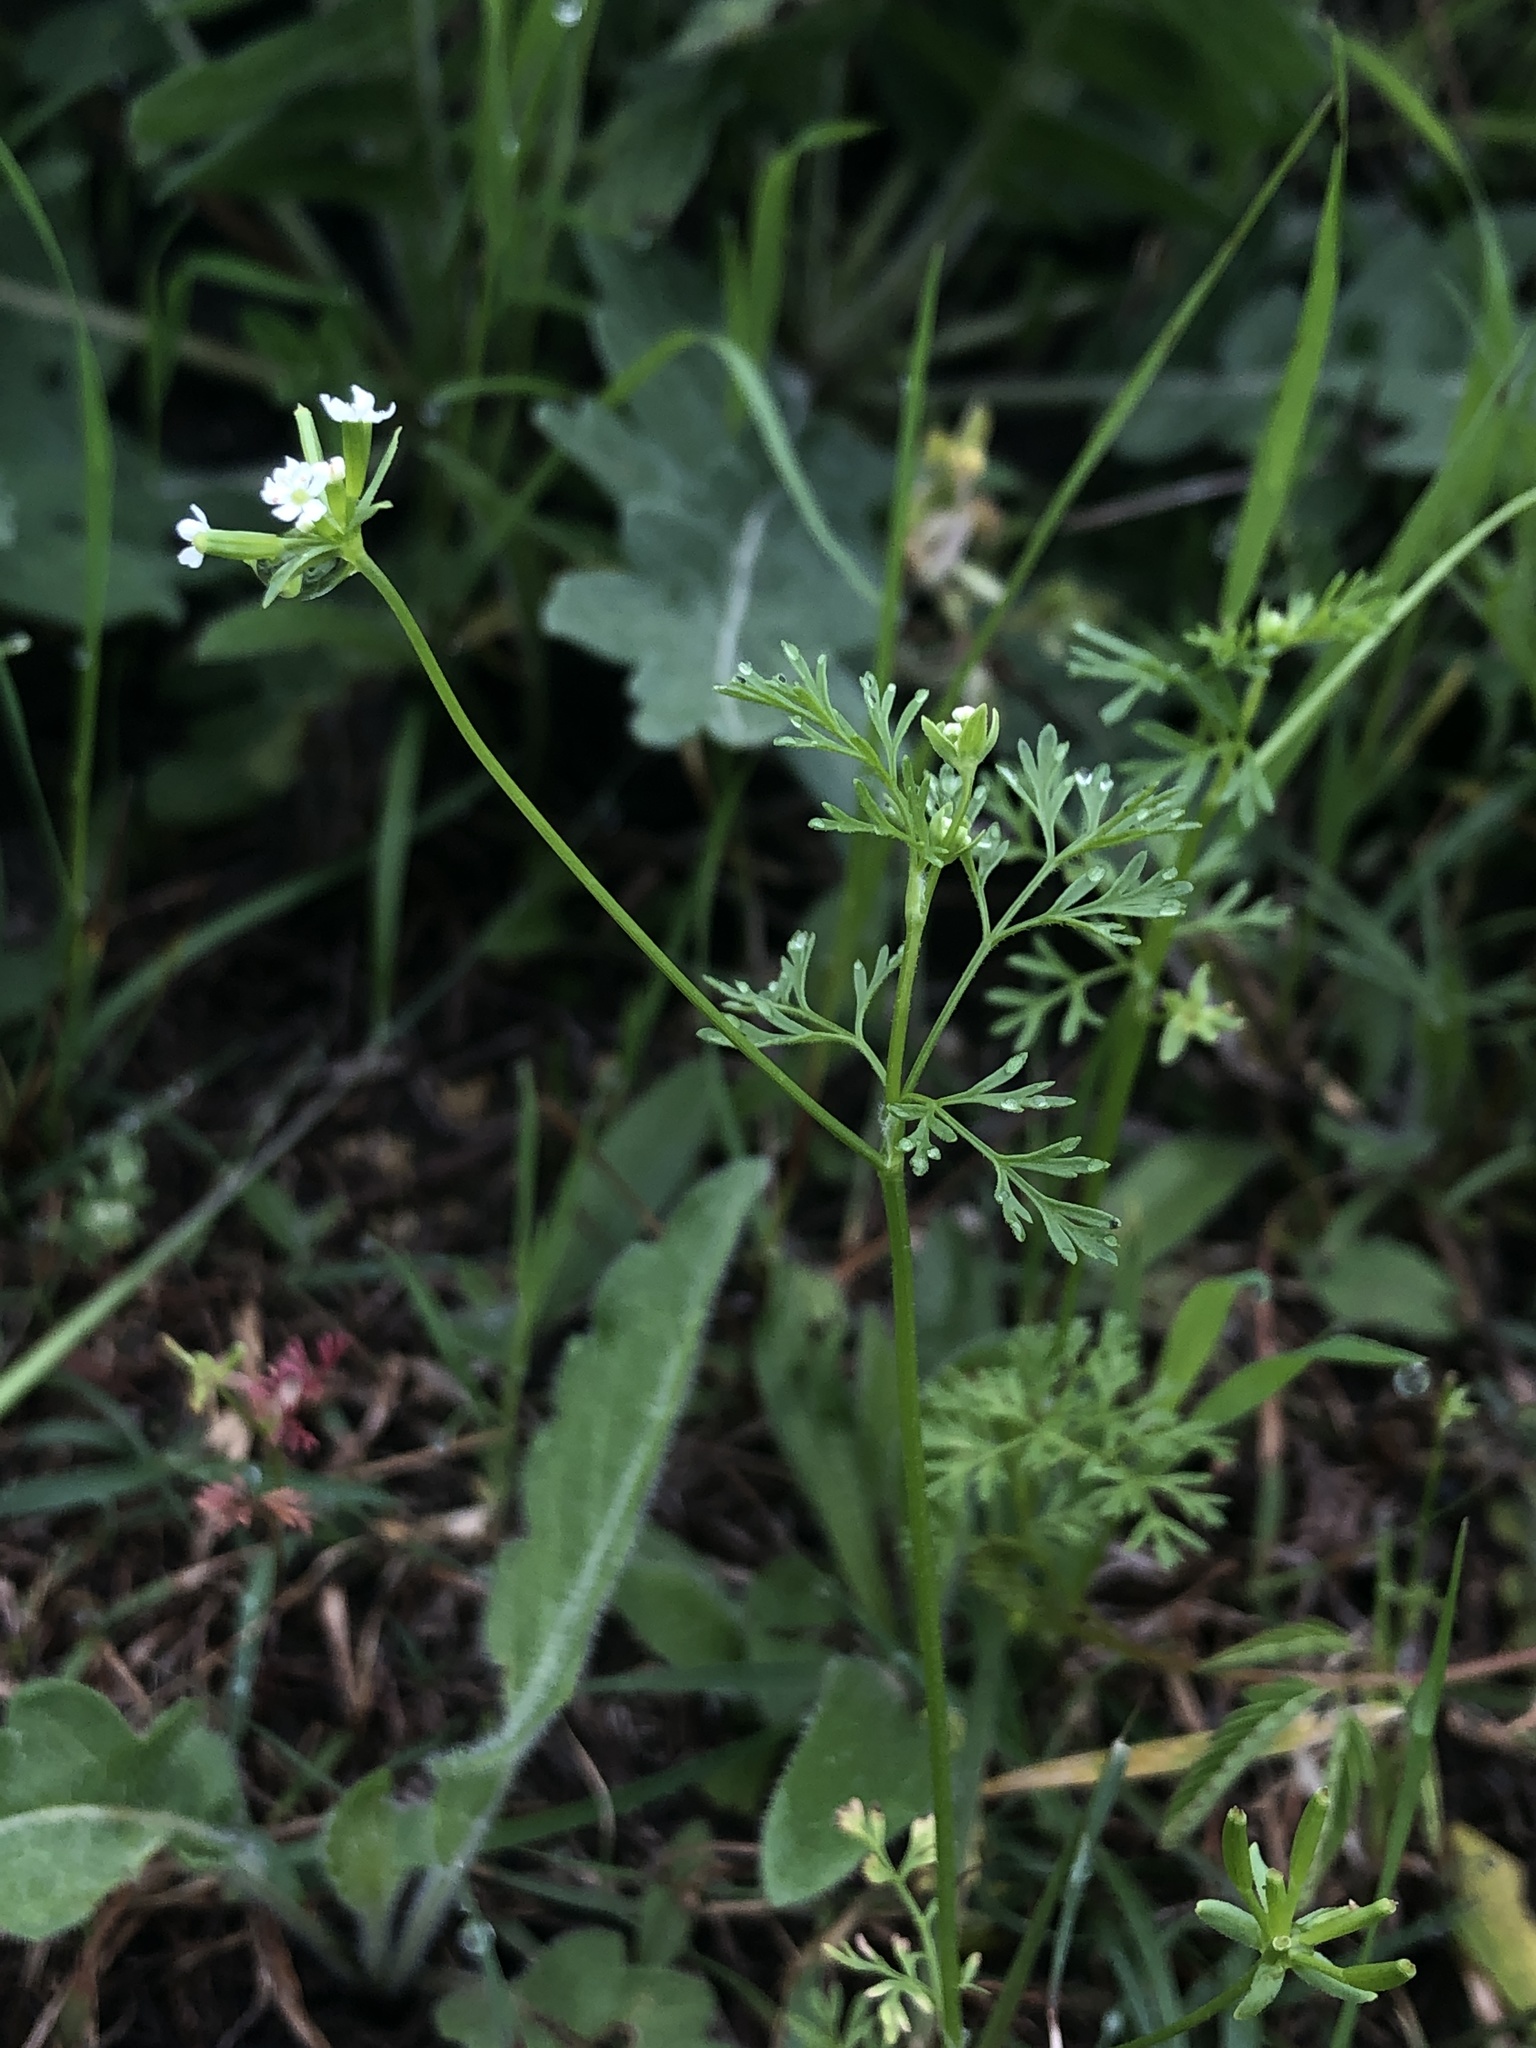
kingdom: Plantae
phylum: Tracheophyta
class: Magnoliopsida
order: Apiales
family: Apiaceae
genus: Chaerophyllum
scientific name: Chaerophyllum tainturieri
